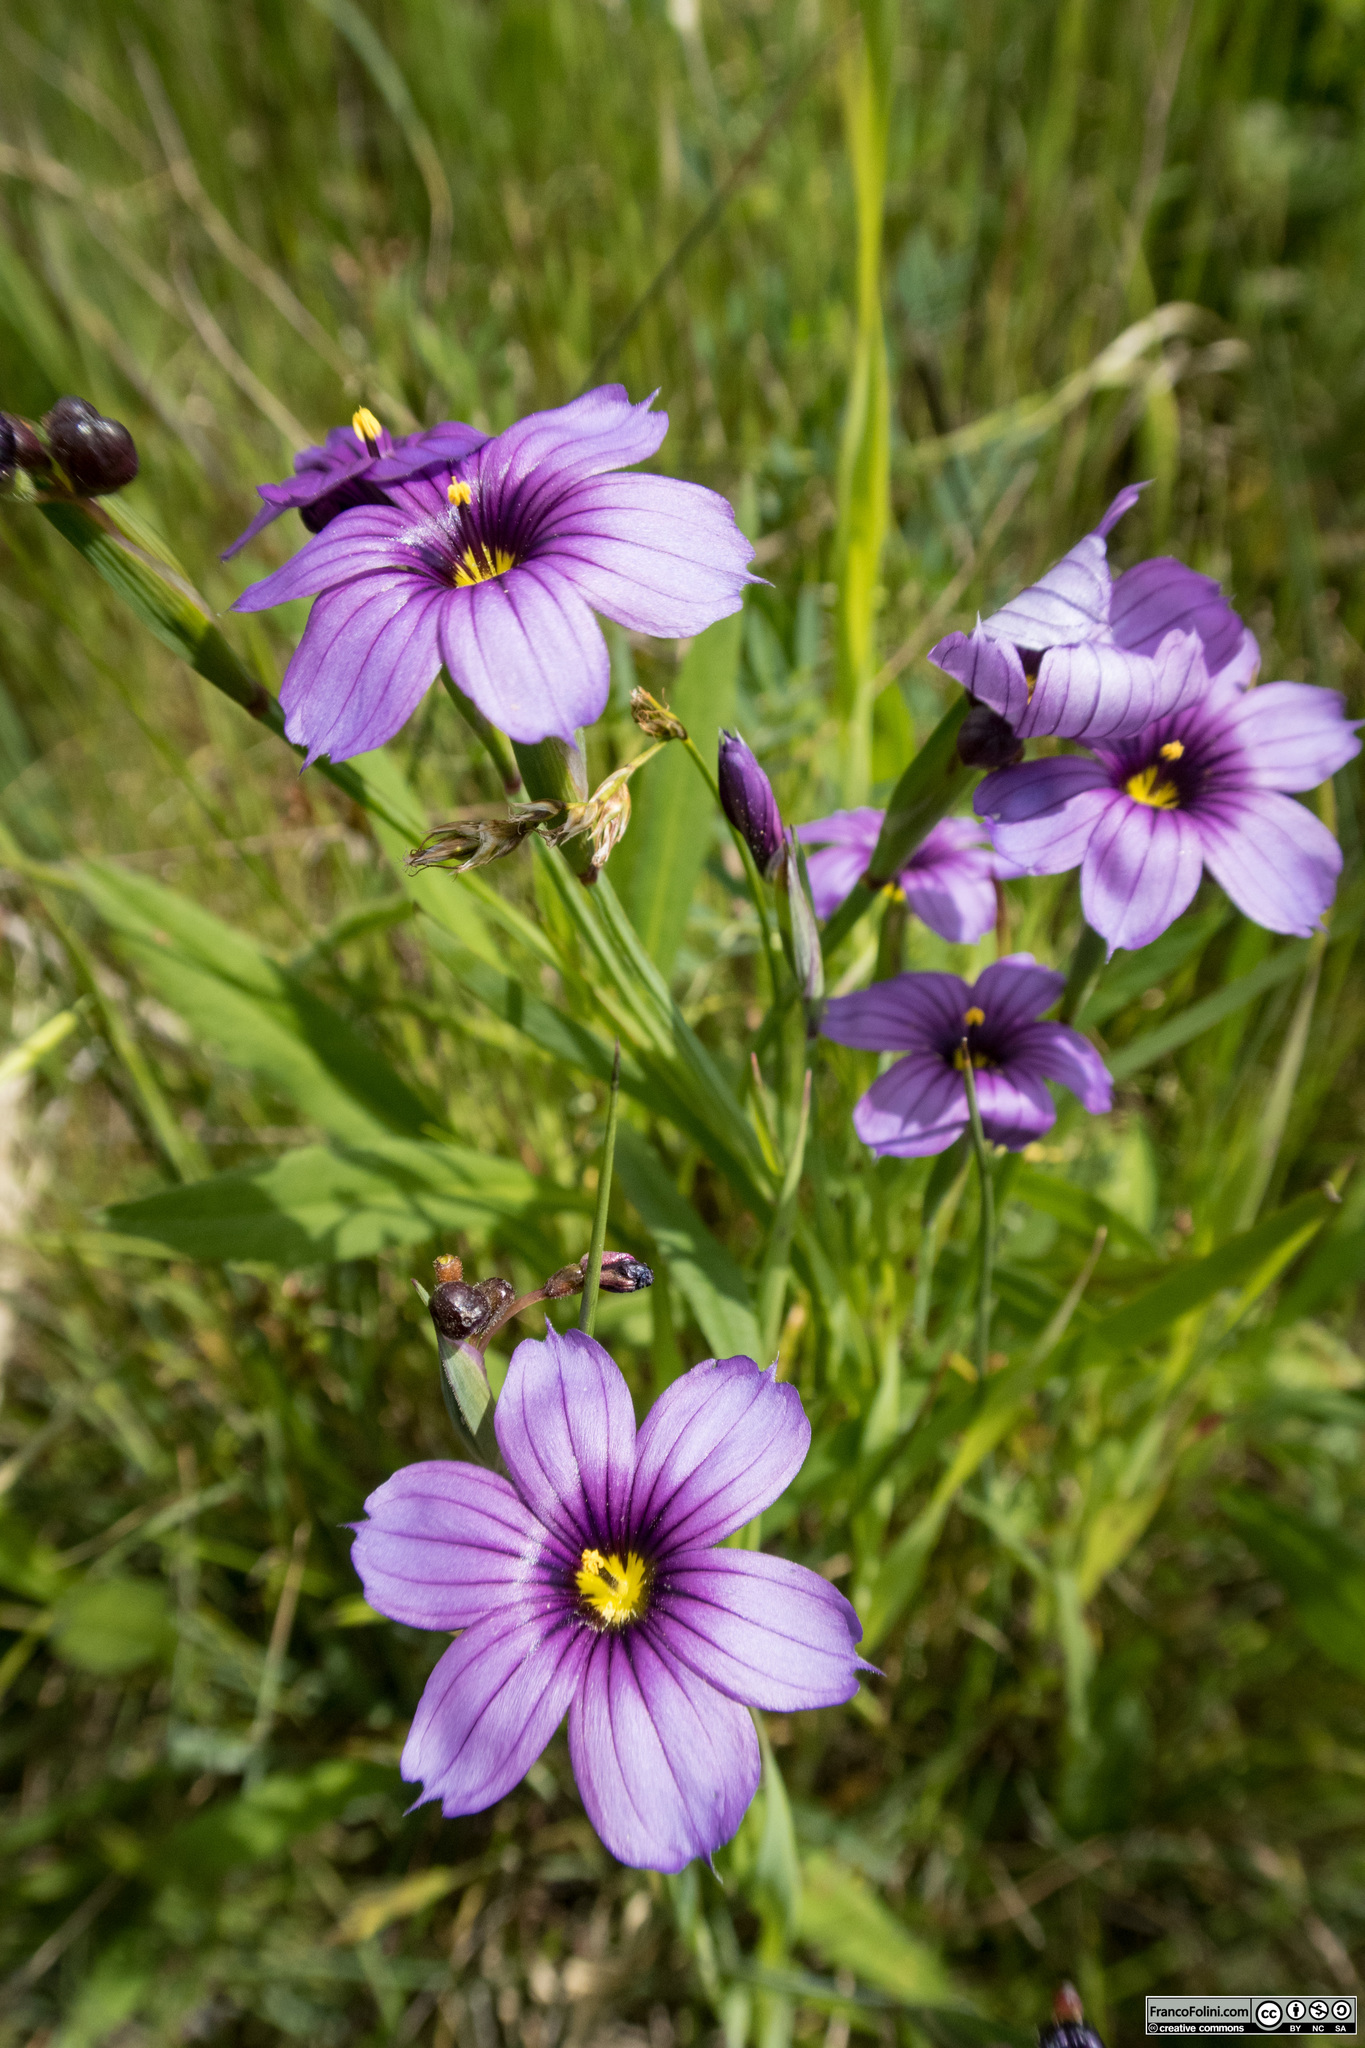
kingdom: Plantae
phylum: Tracheophyta
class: Liliopsida
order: Asparagales
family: Iridaceae
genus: Sisyrinchium
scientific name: Sisyrinchium bellum
